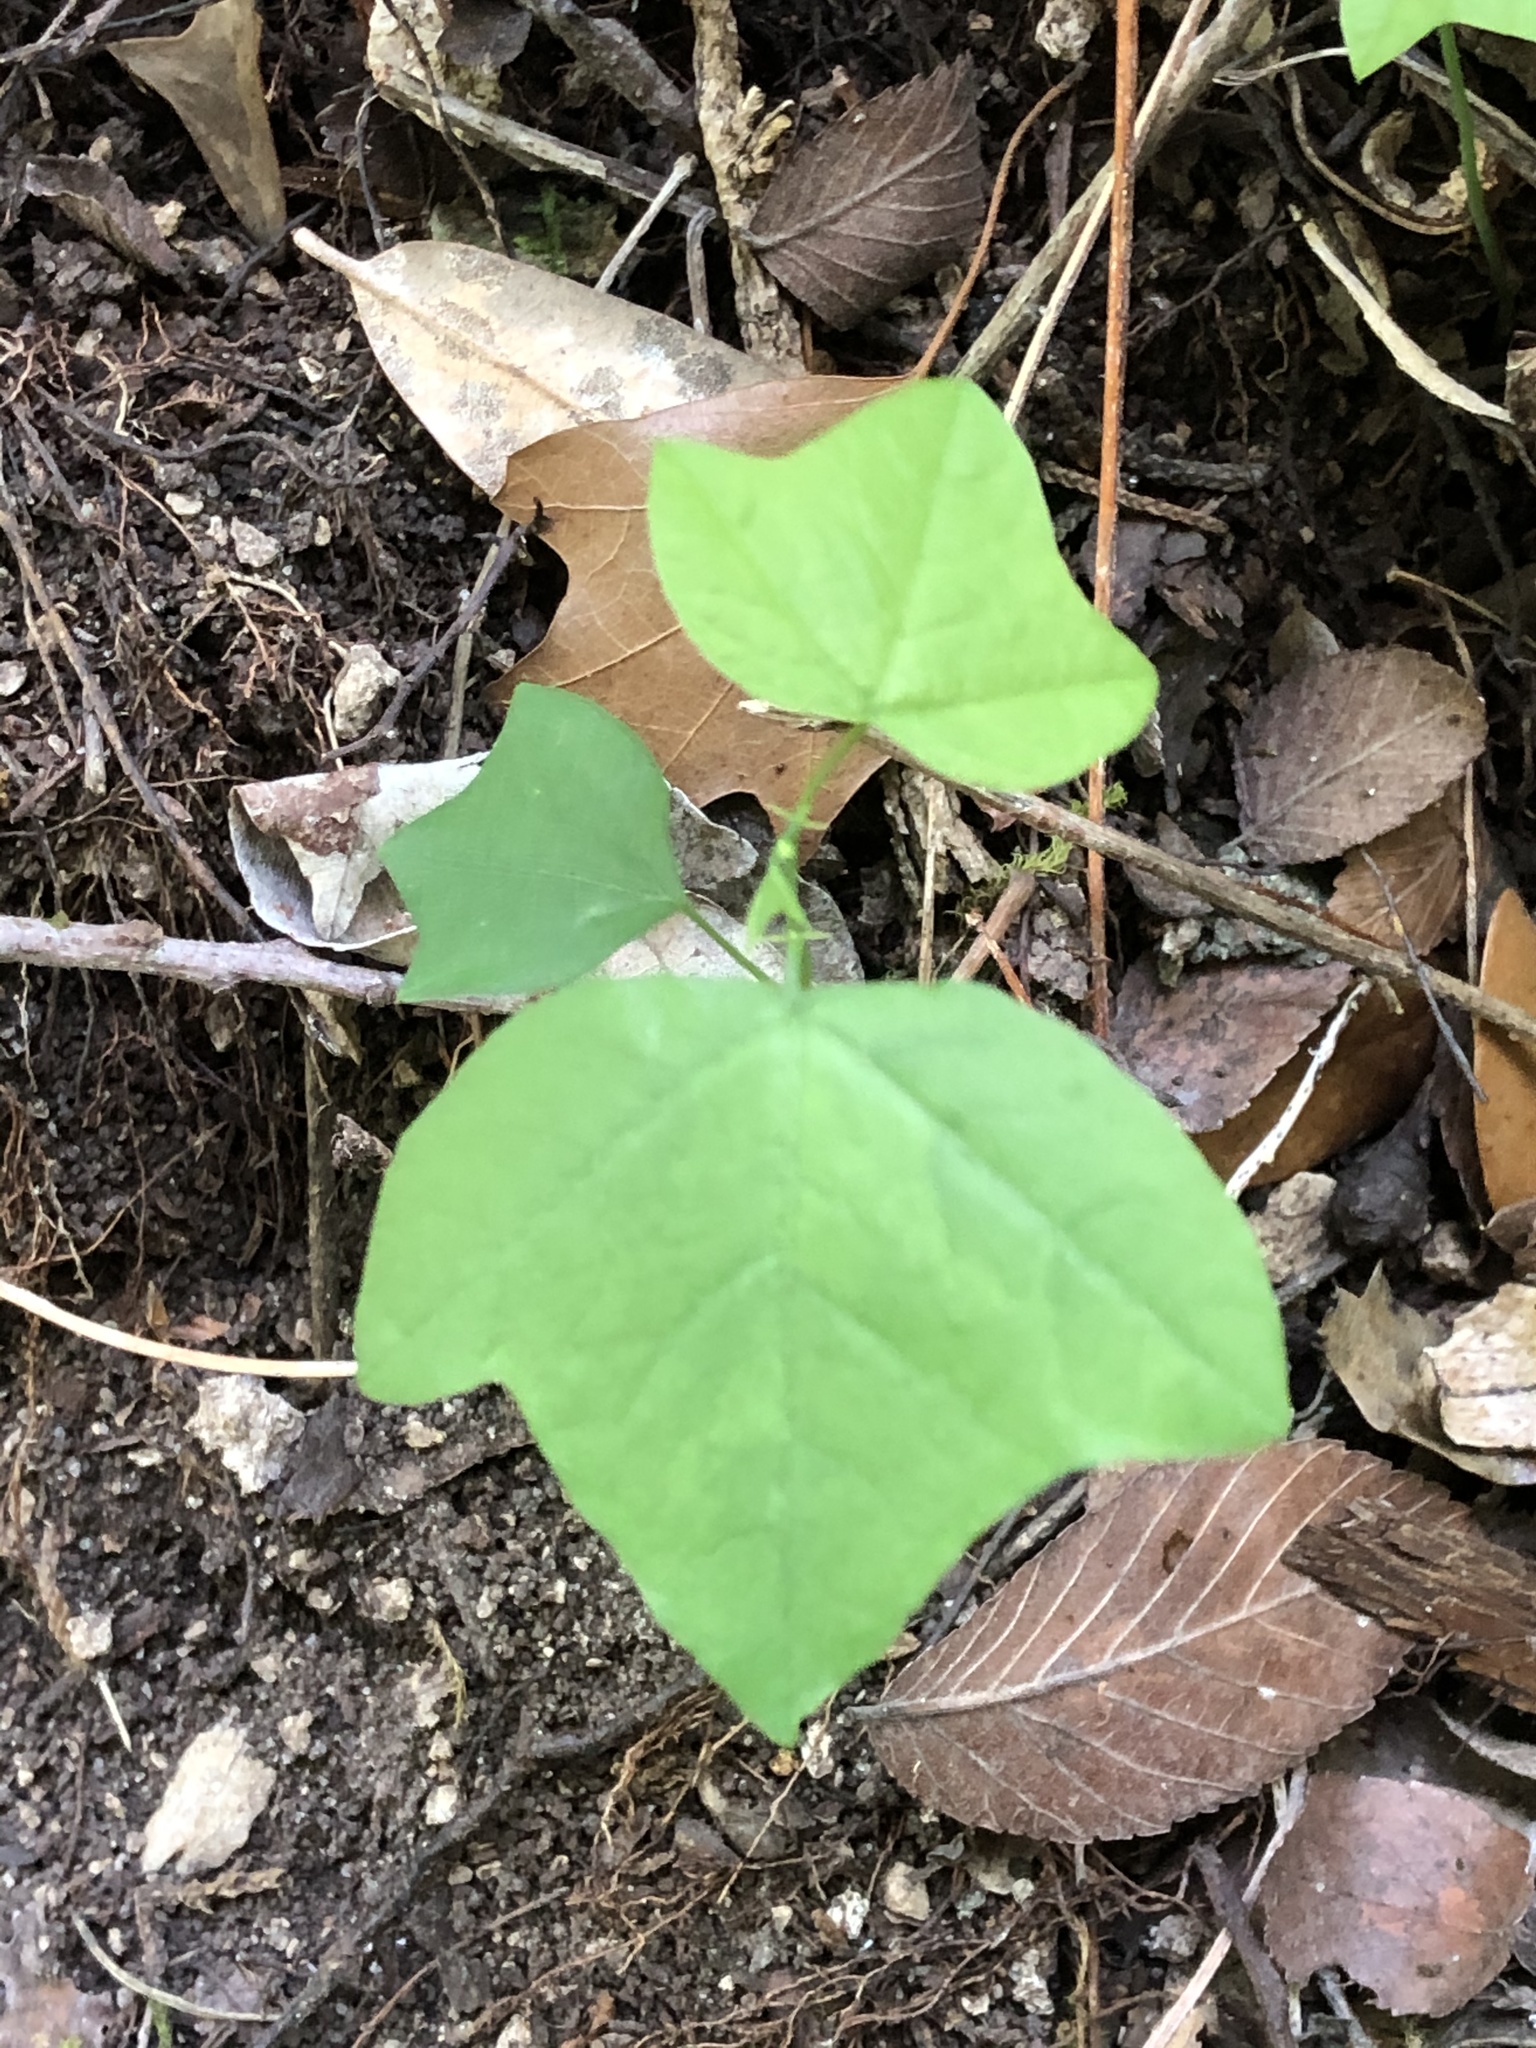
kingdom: Plantae
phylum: Tracheophyta
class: Magnoliopsida
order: Malpighiales
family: Passifloraceae
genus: Passiflora
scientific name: Passiflora lutea
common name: Yellow passionflower
